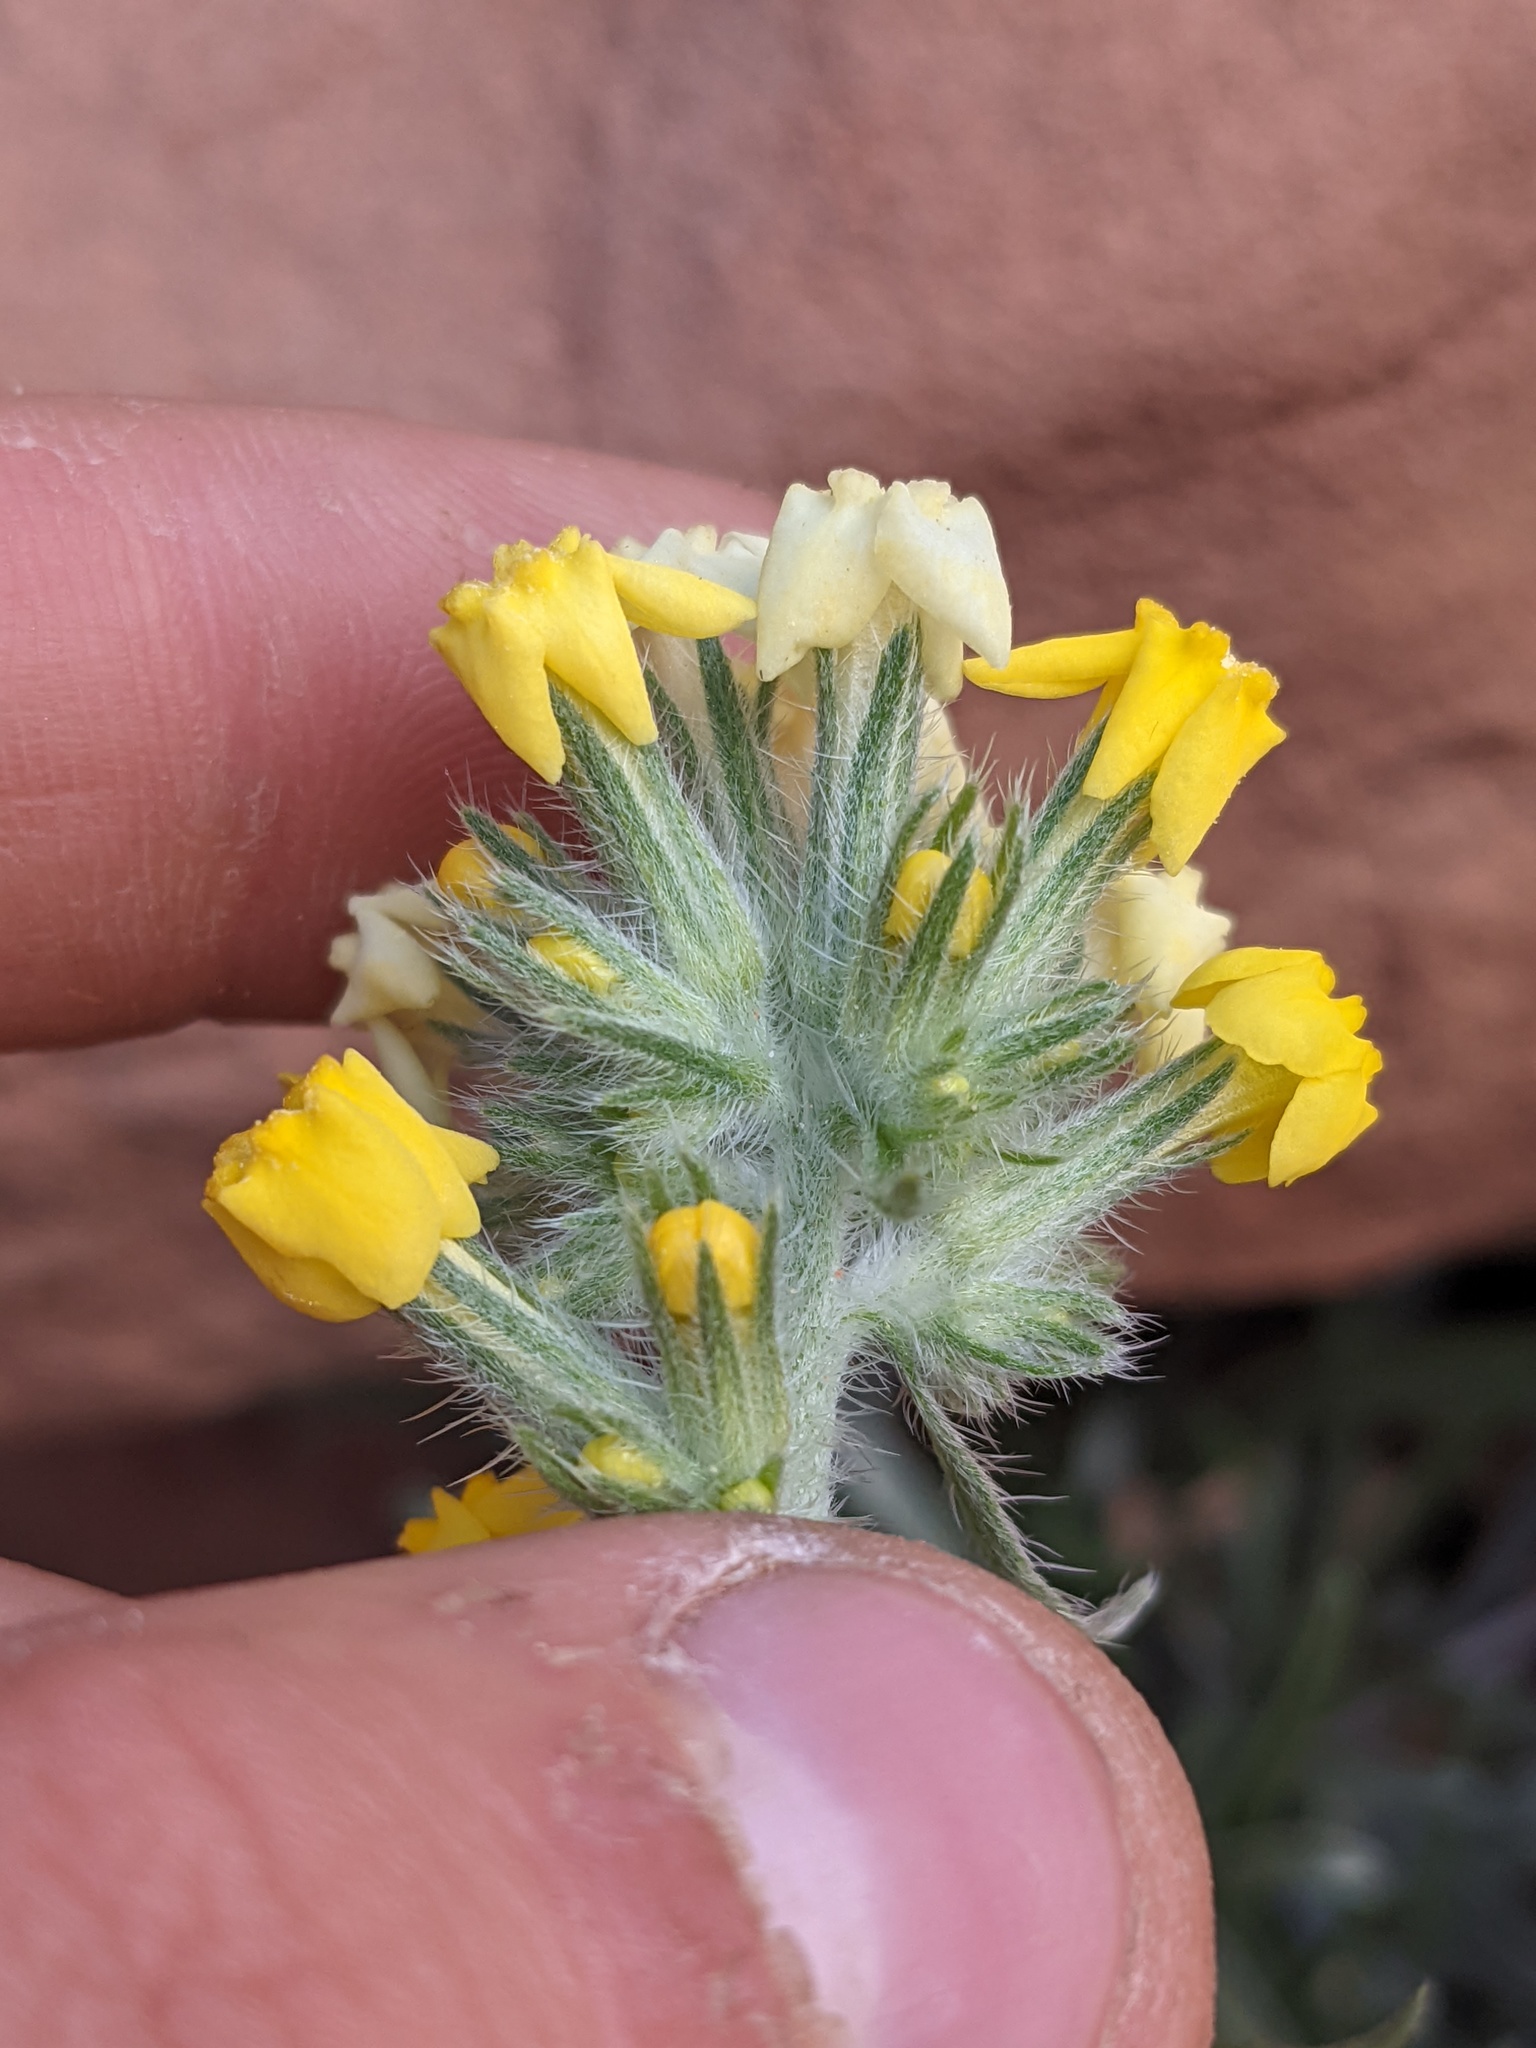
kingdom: Plantae
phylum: Tracheophyta
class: Magnoliopsida
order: Boraginales
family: Boraginaceae
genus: Oreocarya
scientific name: Oreocarya confertiflora
